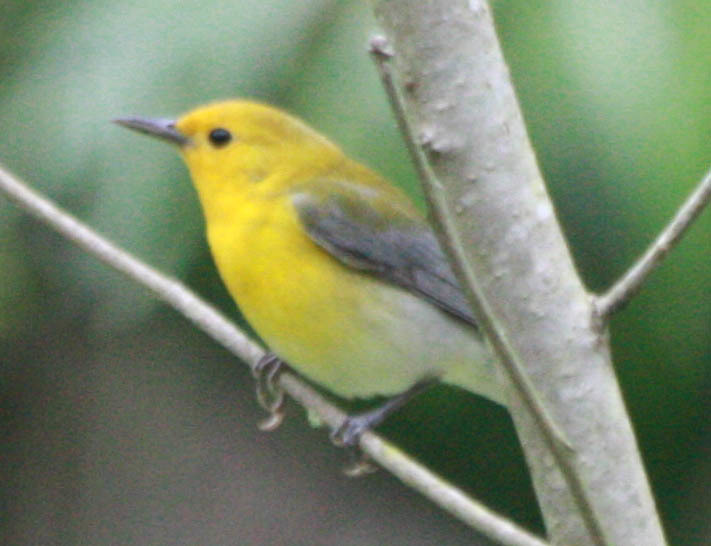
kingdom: Animalia
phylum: Chordata
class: Aves
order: Passeriformes
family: Parulidae
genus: Protonotaria
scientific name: Protonotaria citrea
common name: Prothonotary warbler
